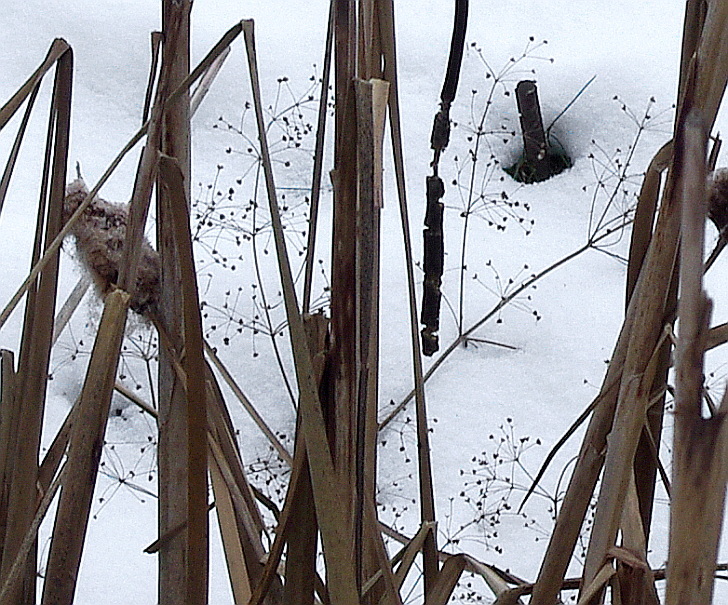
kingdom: Plantae
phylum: Tracheophyta
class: Liliopsida
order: Alismatales
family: Alismataceae
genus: Alisma
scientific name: Alisma plantago-aquatica
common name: Water-plantain
